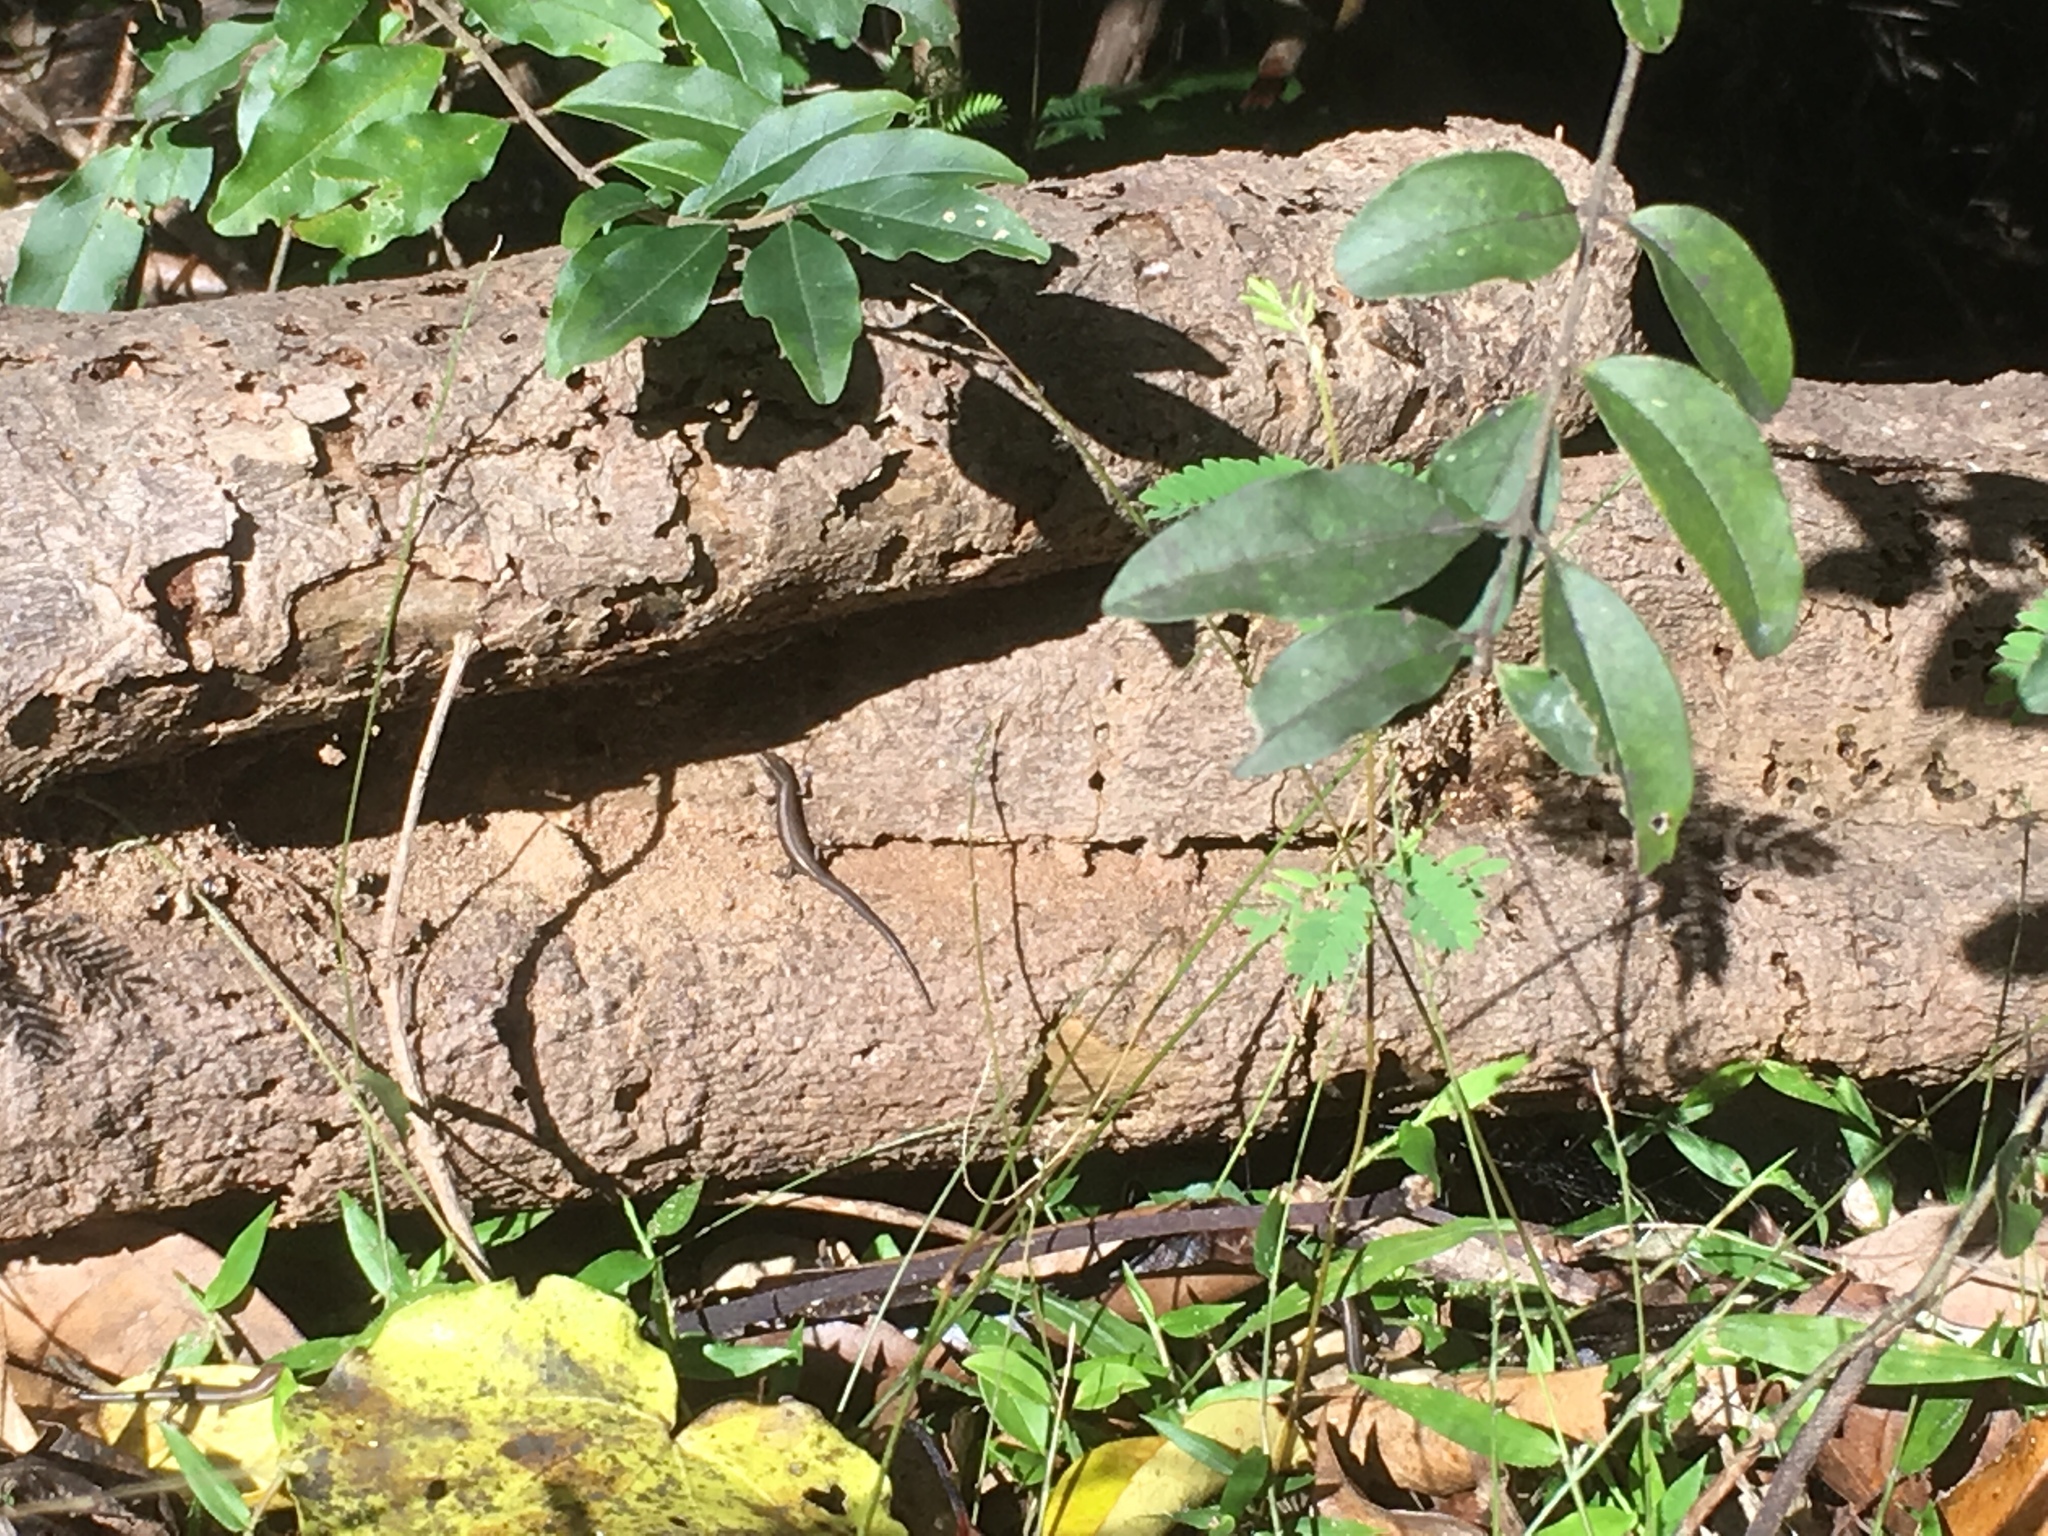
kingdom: Animalia
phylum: Chordata
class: Squamata
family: Scincidae
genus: Lampropholis
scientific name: Lampropholis delicata
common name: Plague skink
